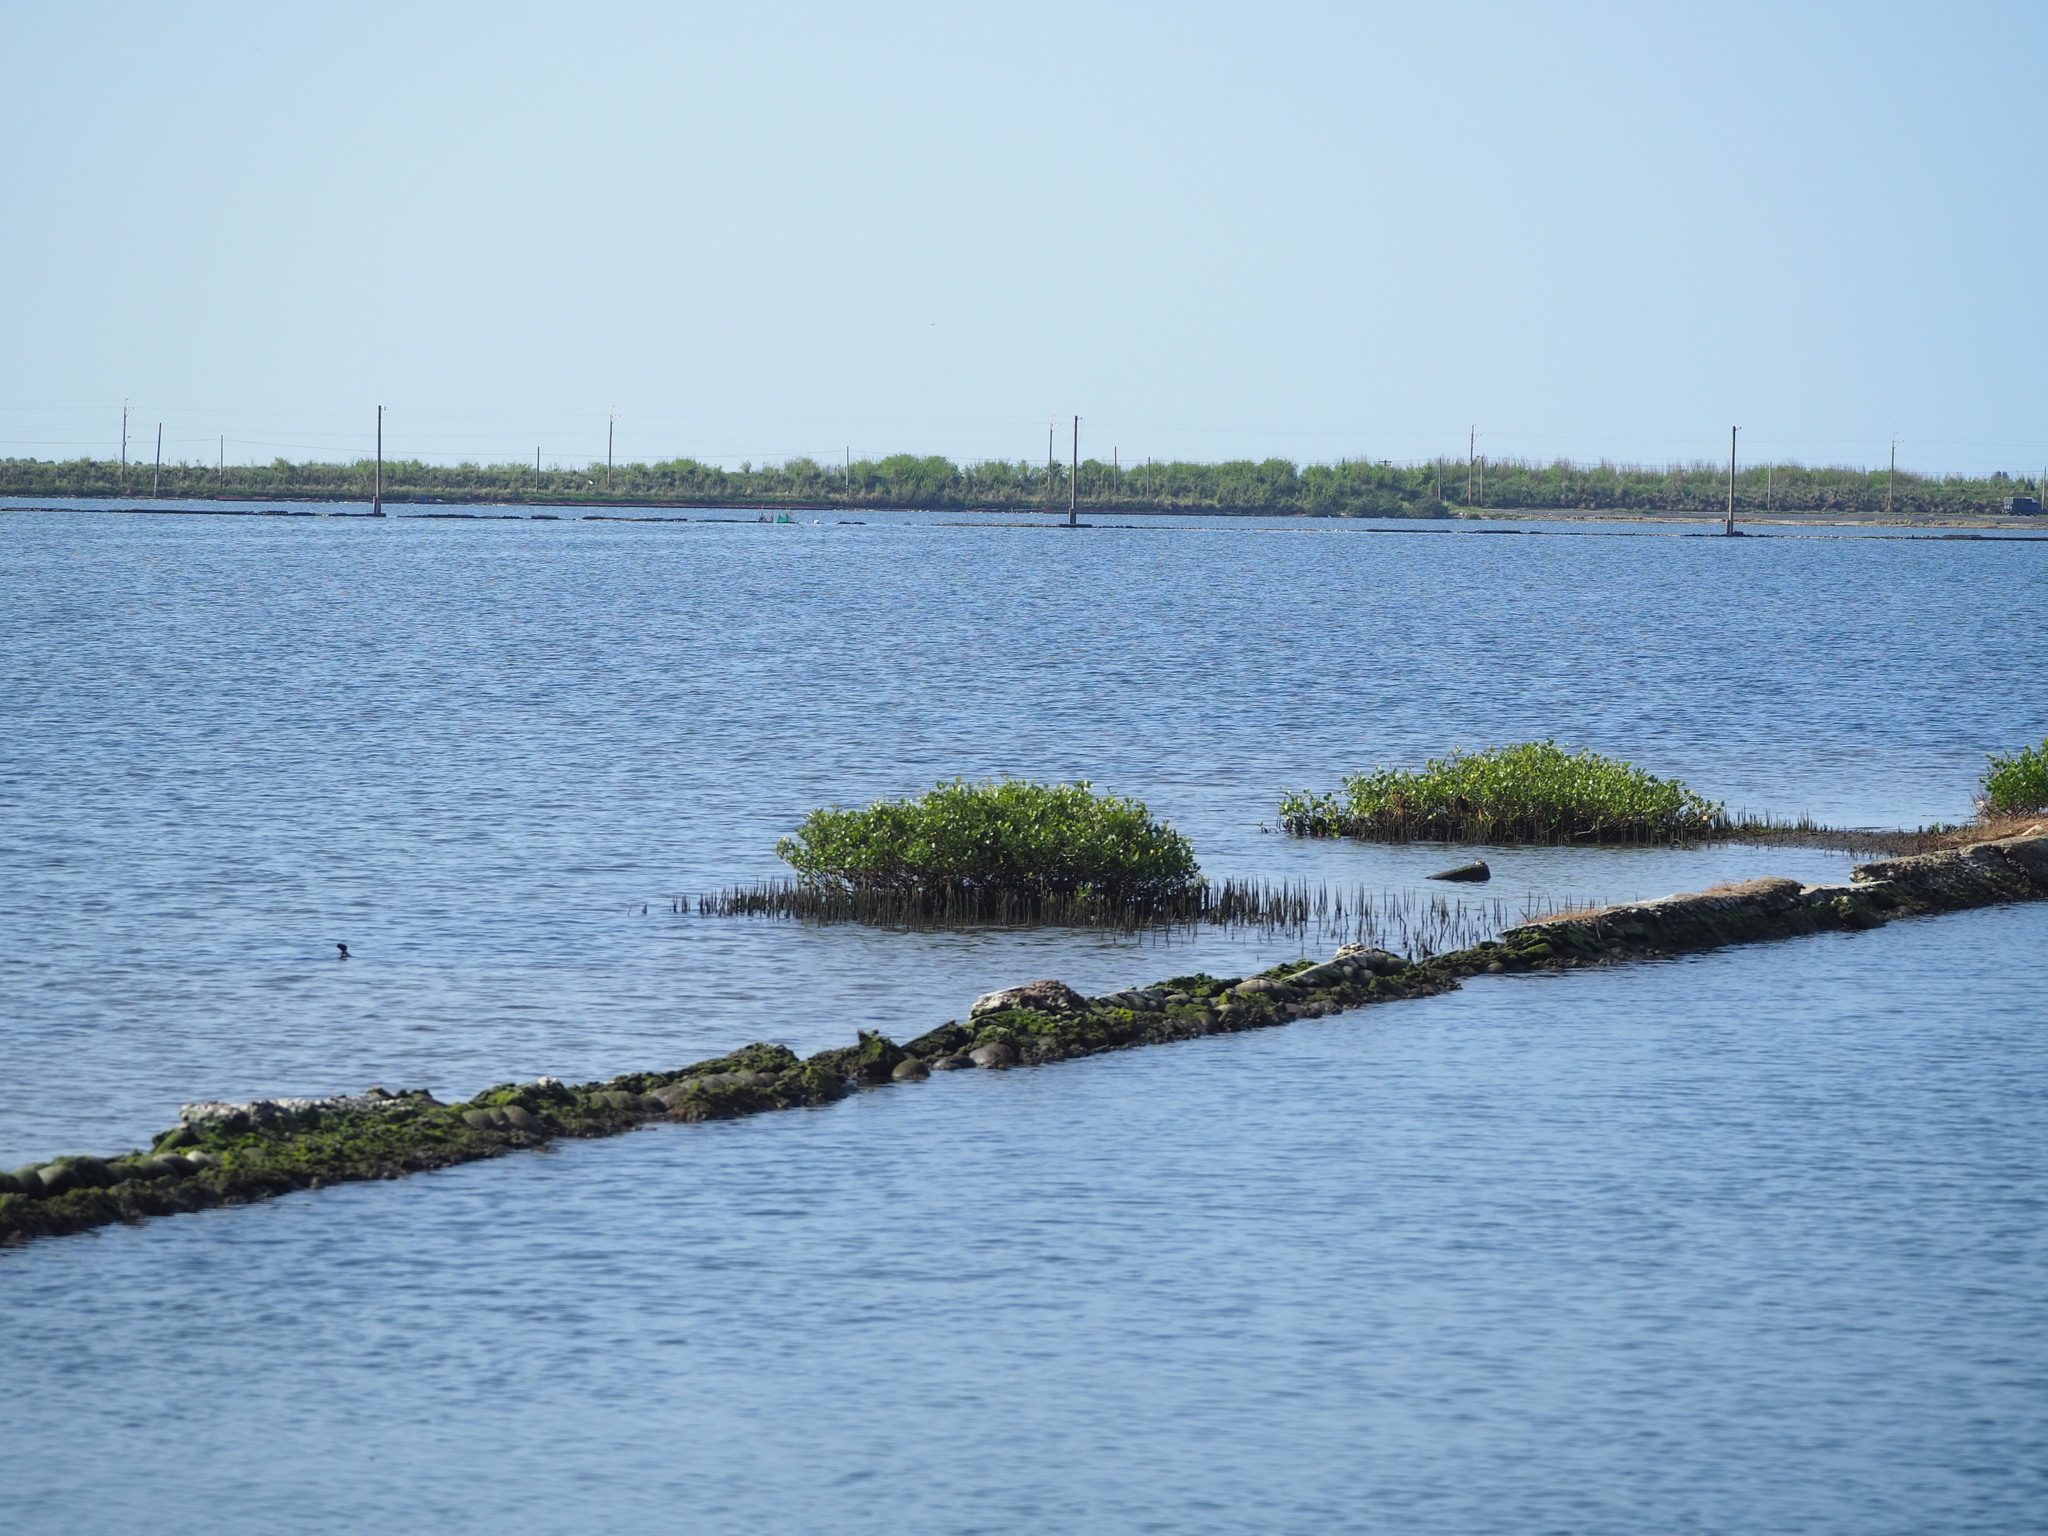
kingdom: Plantae
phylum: Tracheophyta
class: Magnoliopsida
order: Lamiales
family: Acanthaceae
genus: Avicennia
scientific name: Avicennia marina
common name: Gray mangrove
